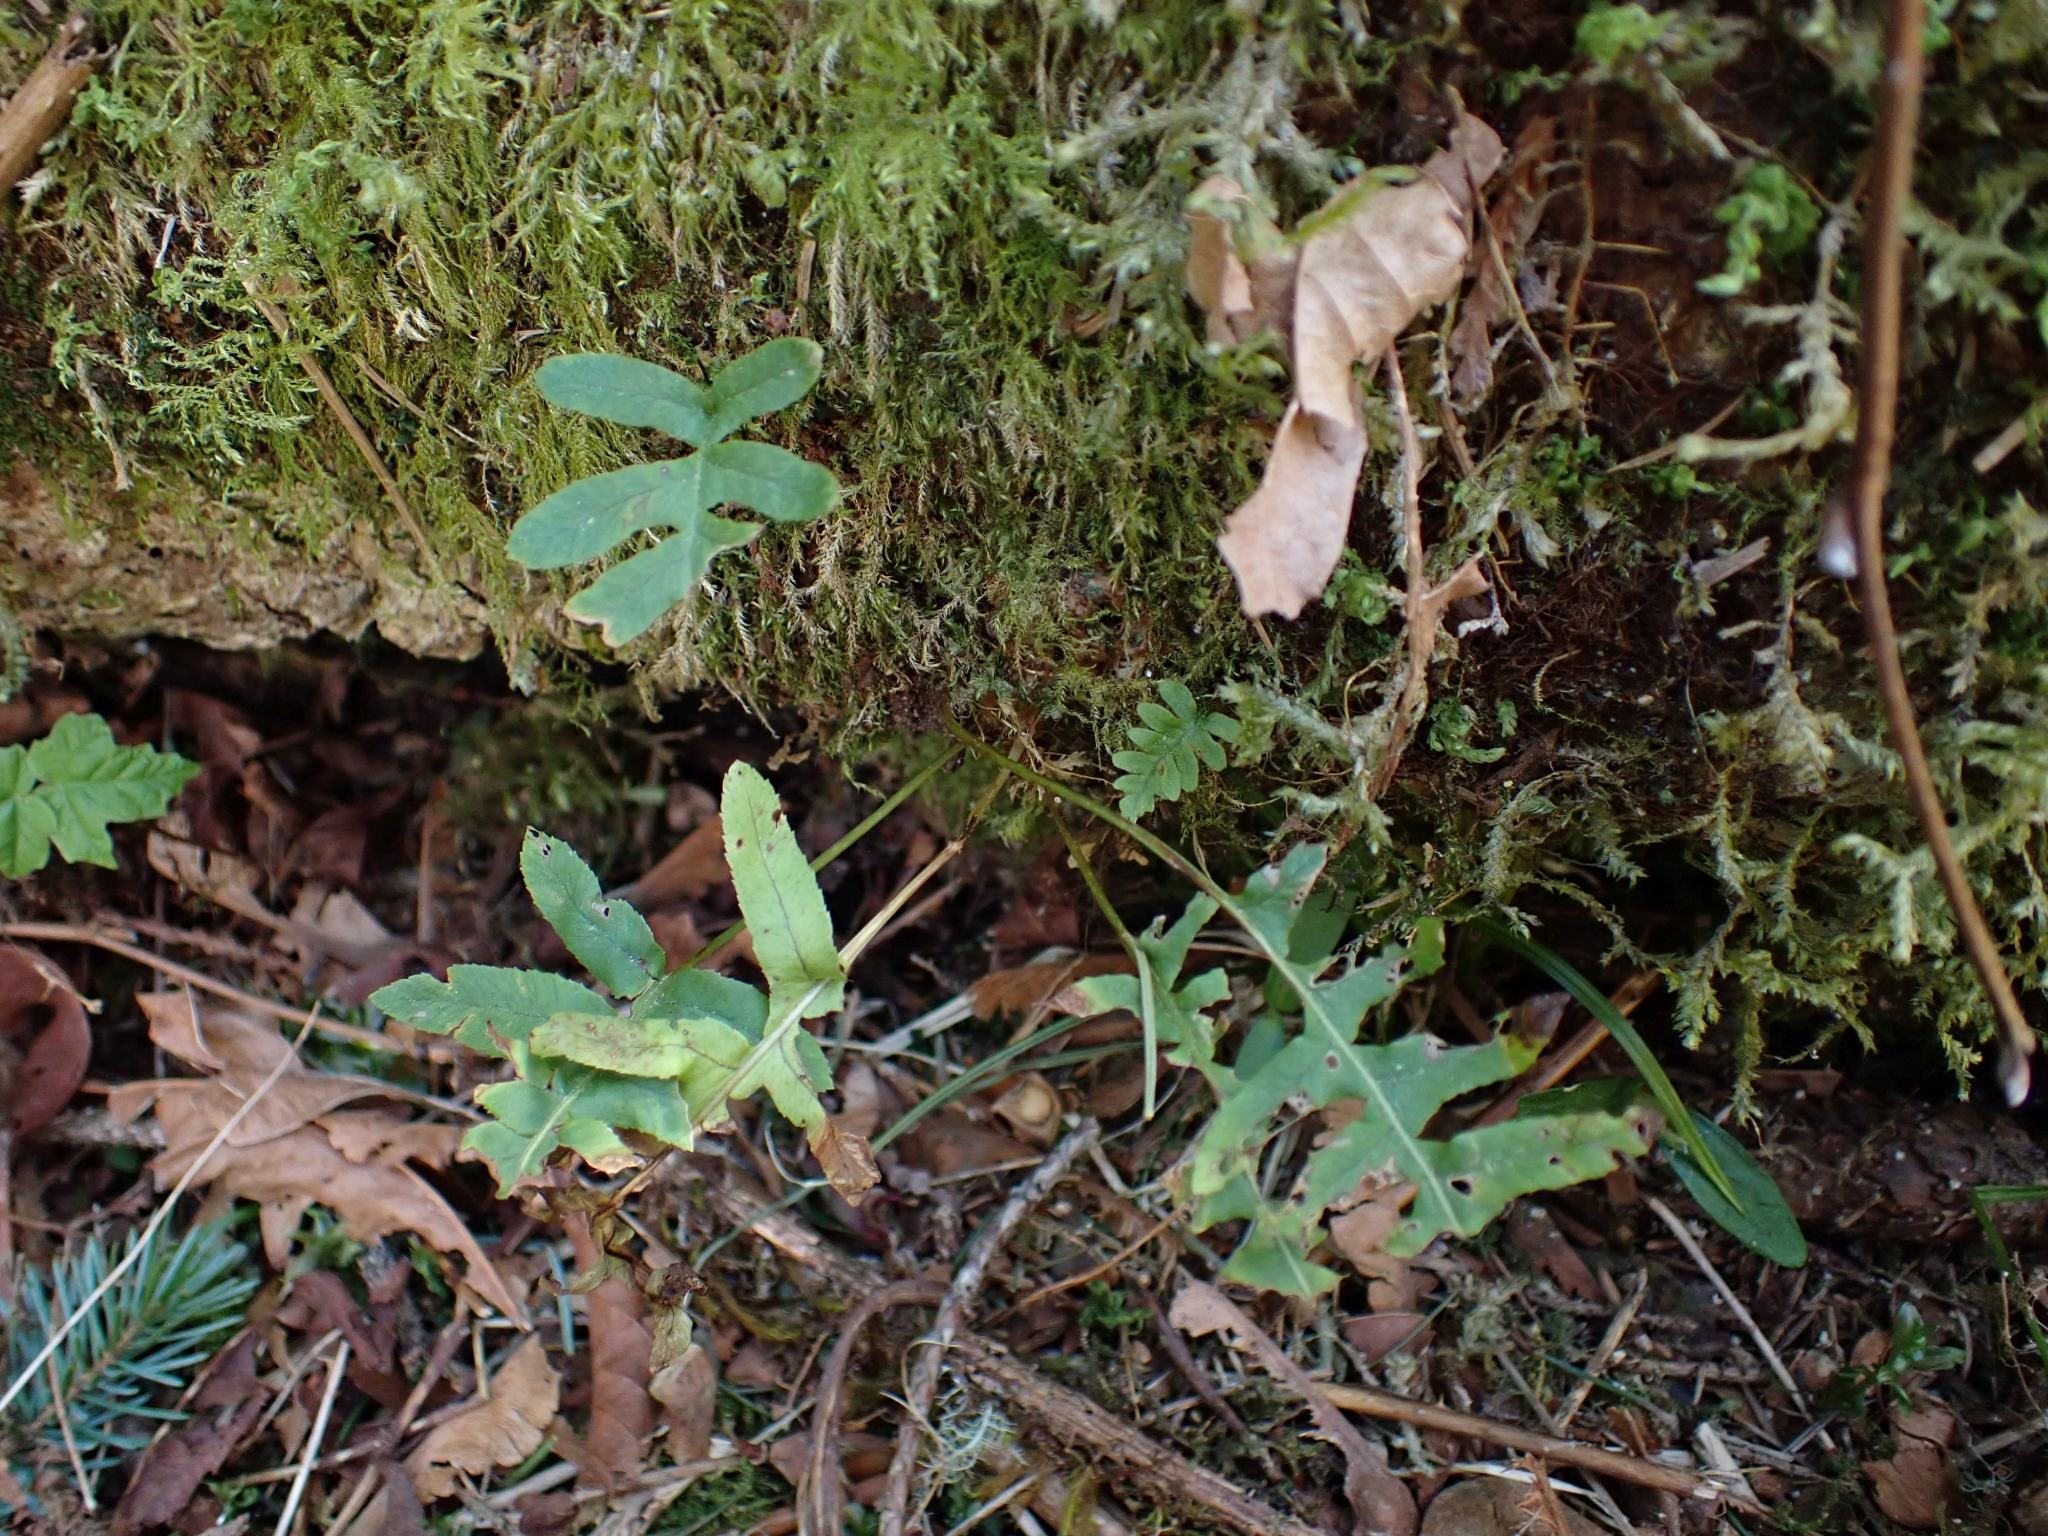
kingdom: Plantae
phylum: Tracheophyta
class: Polypodiopsida
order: Polypodiales
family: Polypodiaceae
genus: Polypodium
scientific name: Polypodium glycyrrhiza
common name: Licorice fern
